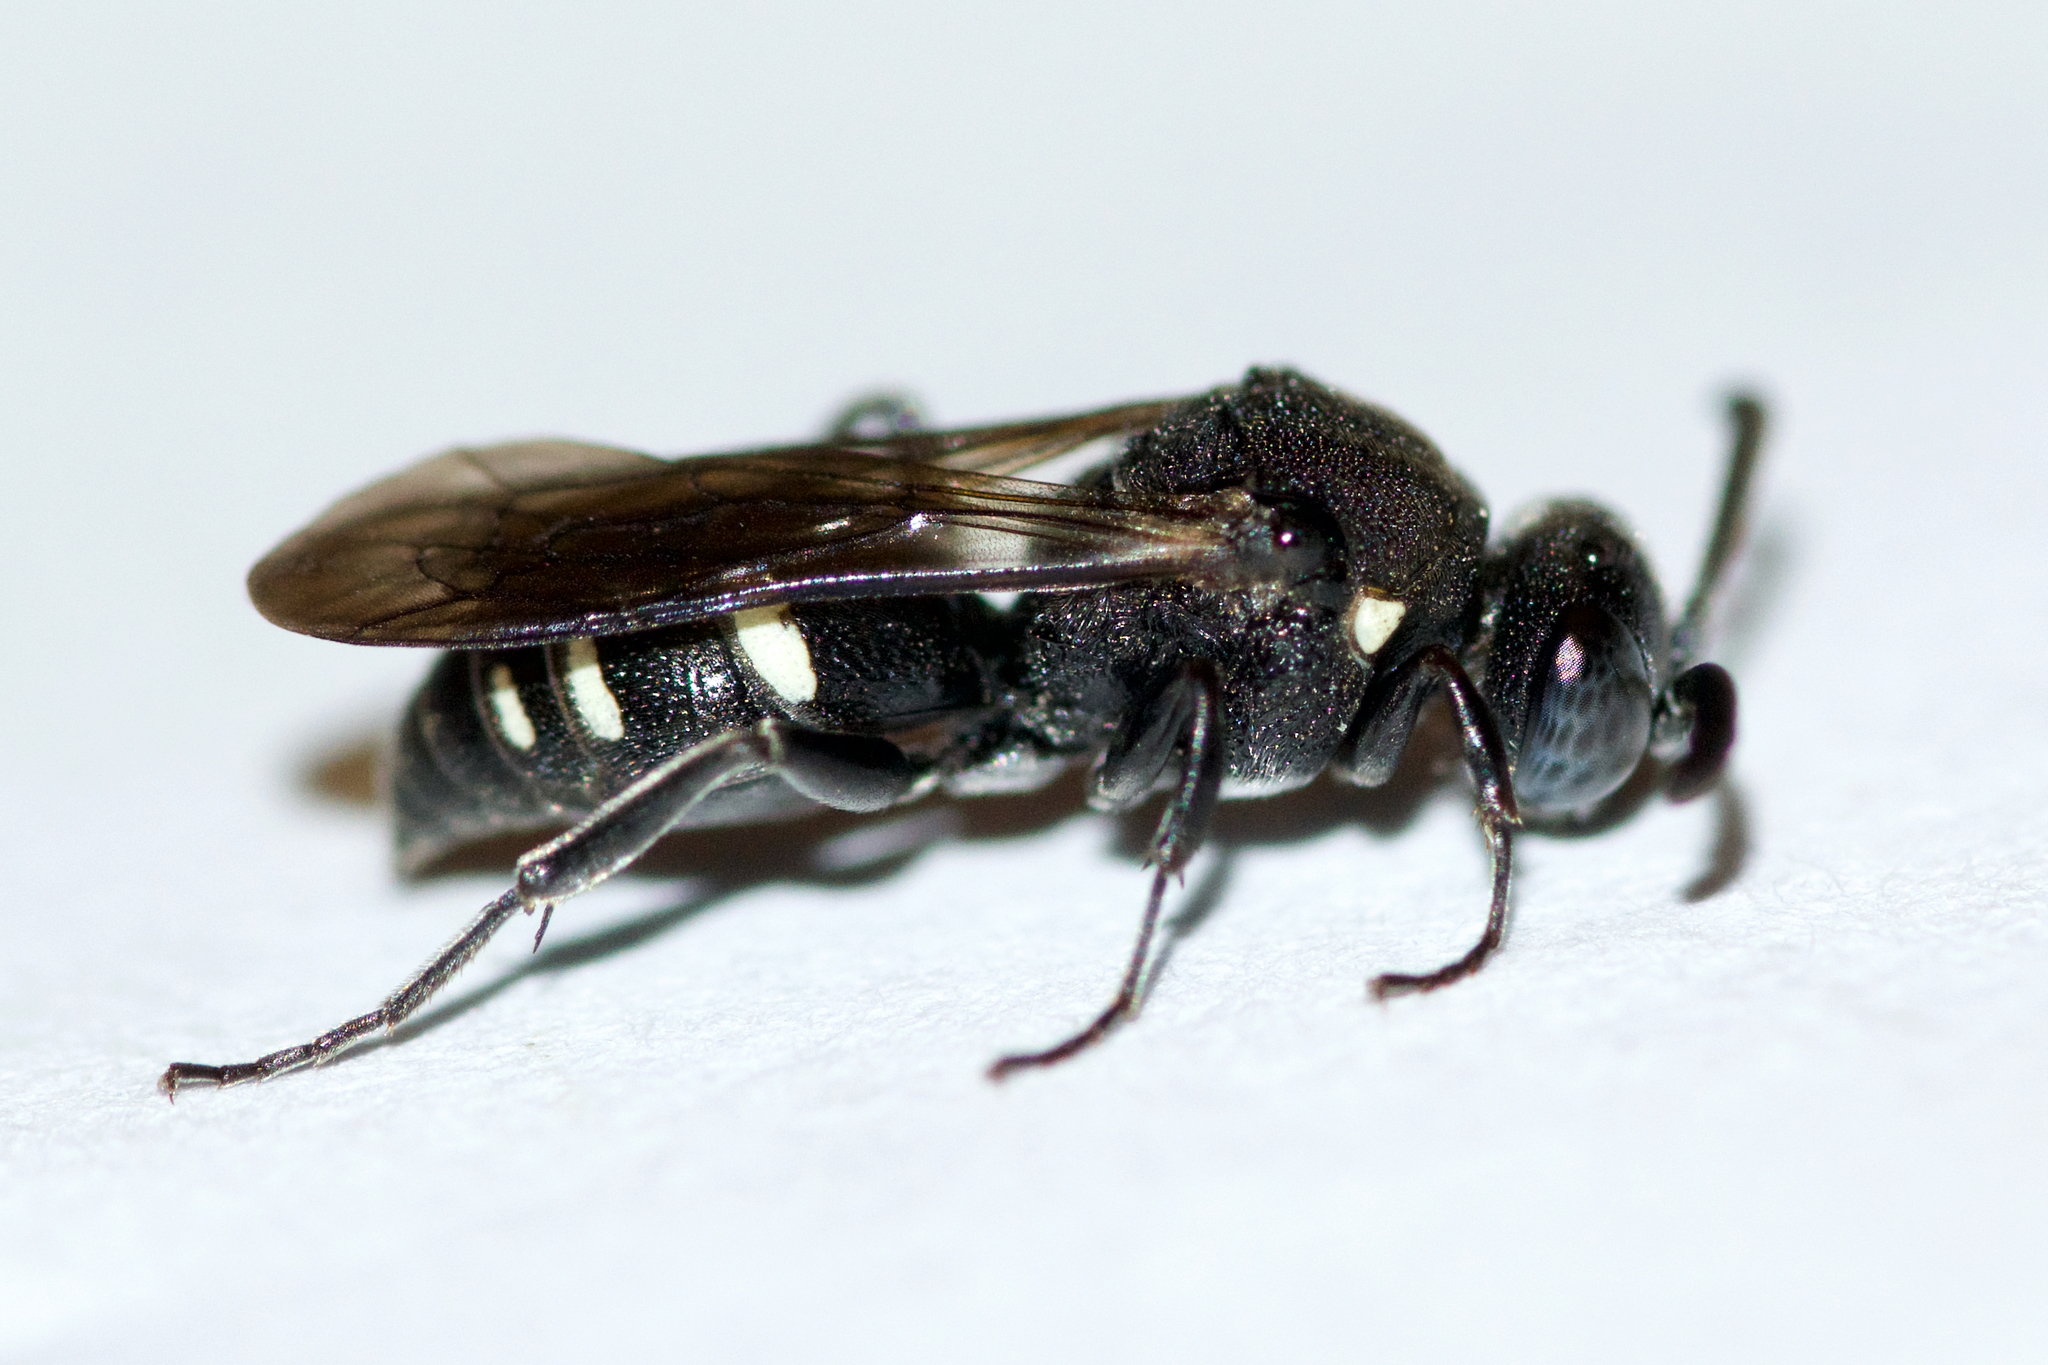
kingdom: Animalia
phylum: Arthropoda
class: Insecta
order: Hymenoptera
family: Crabronidae
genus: Nysson
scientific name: Nysson lateralis
